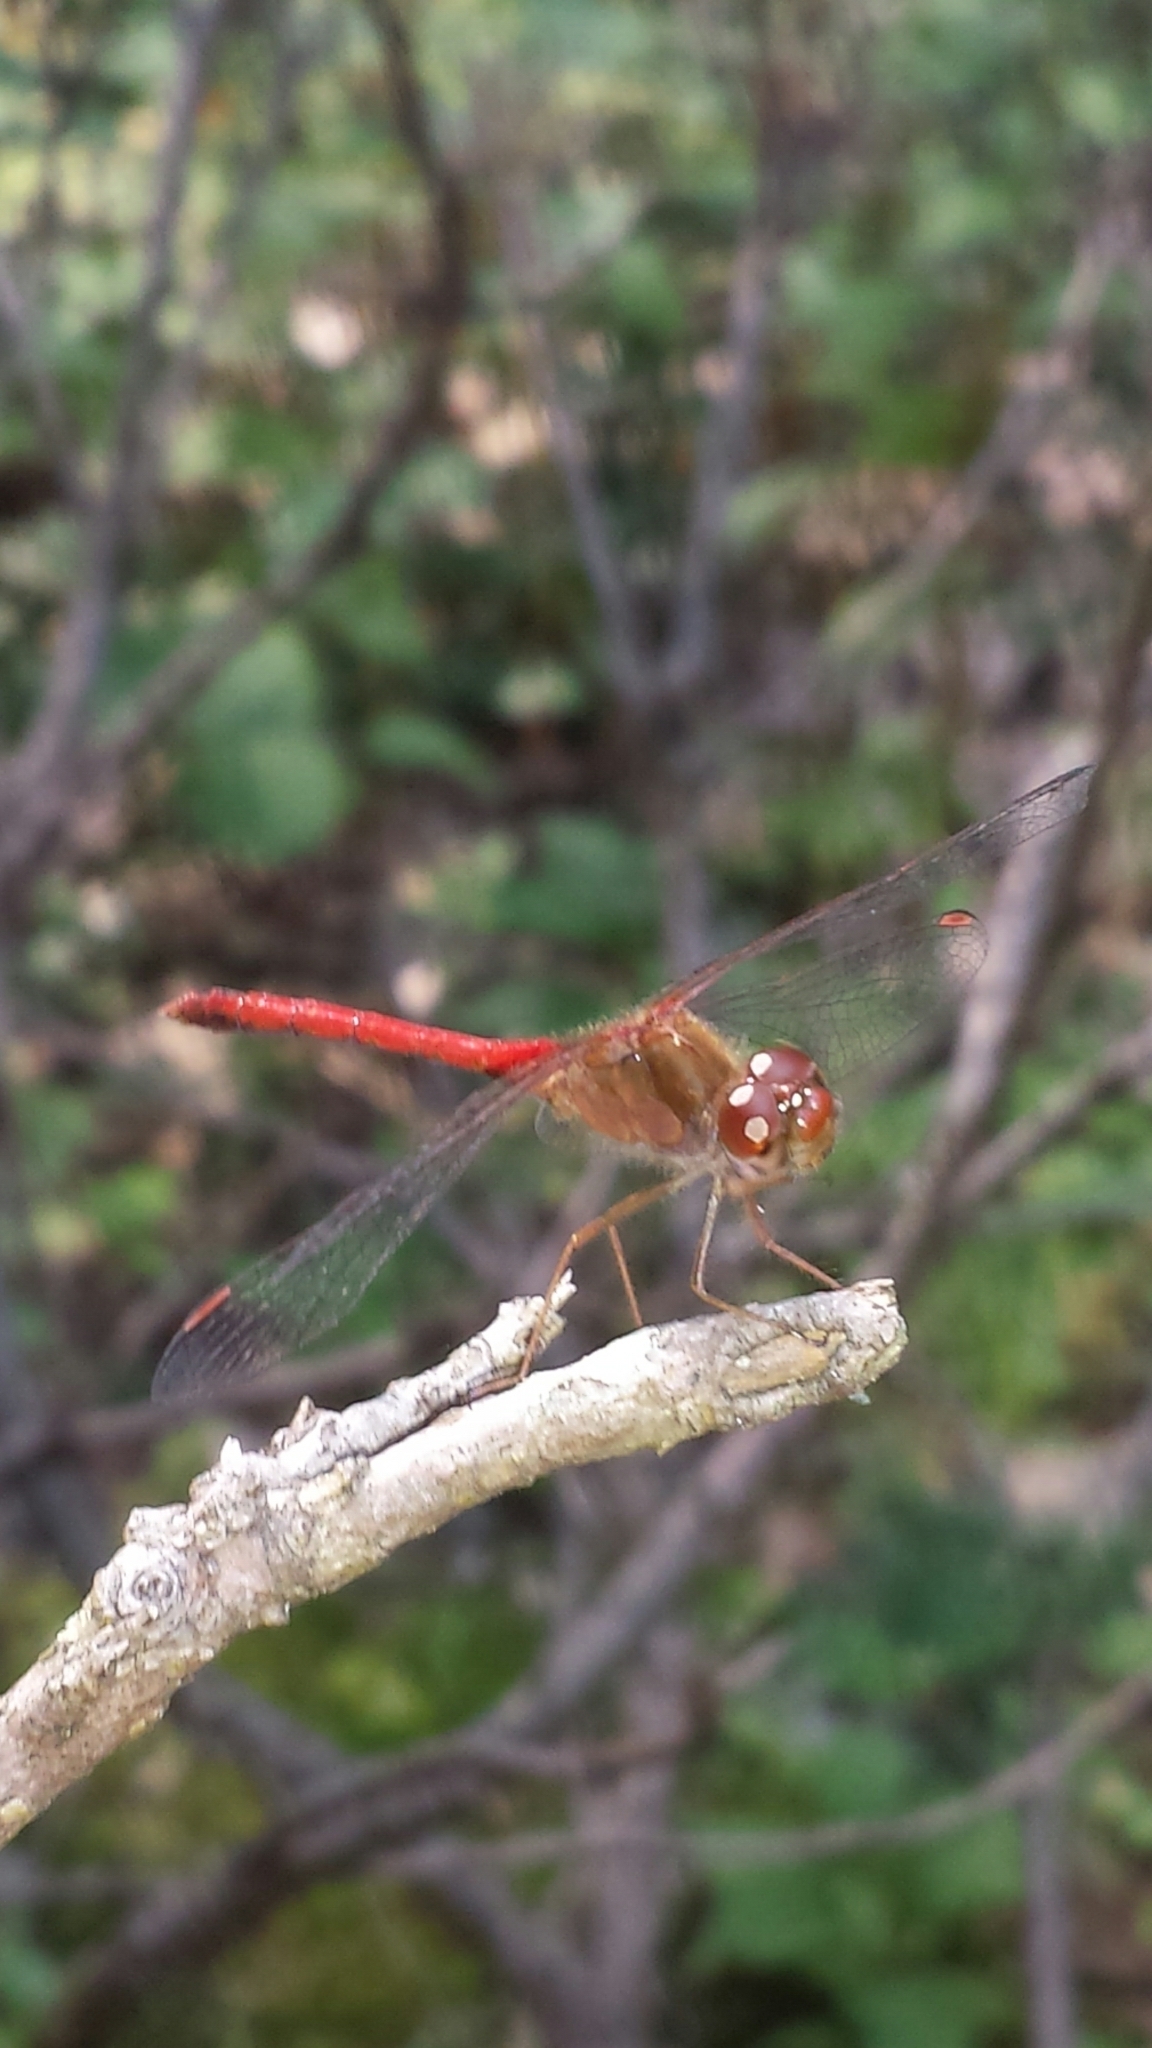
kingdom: Animalia
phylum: Arthropoda
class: Insecta
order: Odonata
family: Libellulidae
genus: Sympetrum
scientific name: Sympetrum vicinum
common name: Autumn meadowhawk
